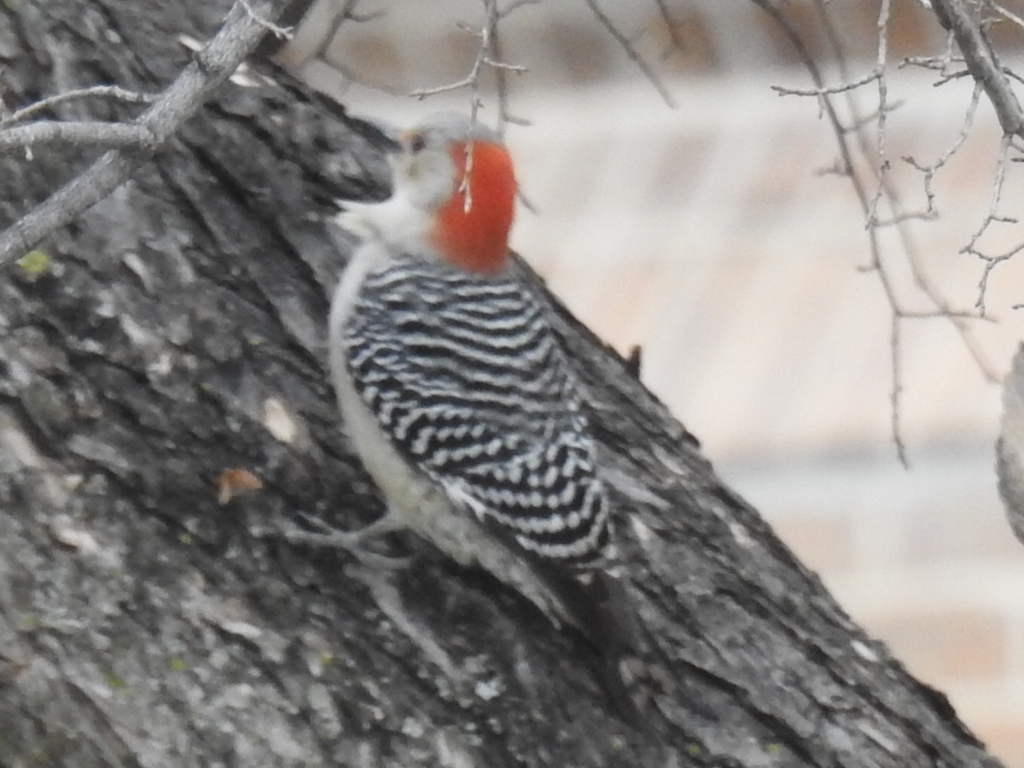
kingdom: Animalia
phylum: Chordata
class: Aves
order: Piciformes
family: Picidae
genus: Melanerpes
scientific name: Melanerpes carolinus
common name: Red-bellied woodpecker
